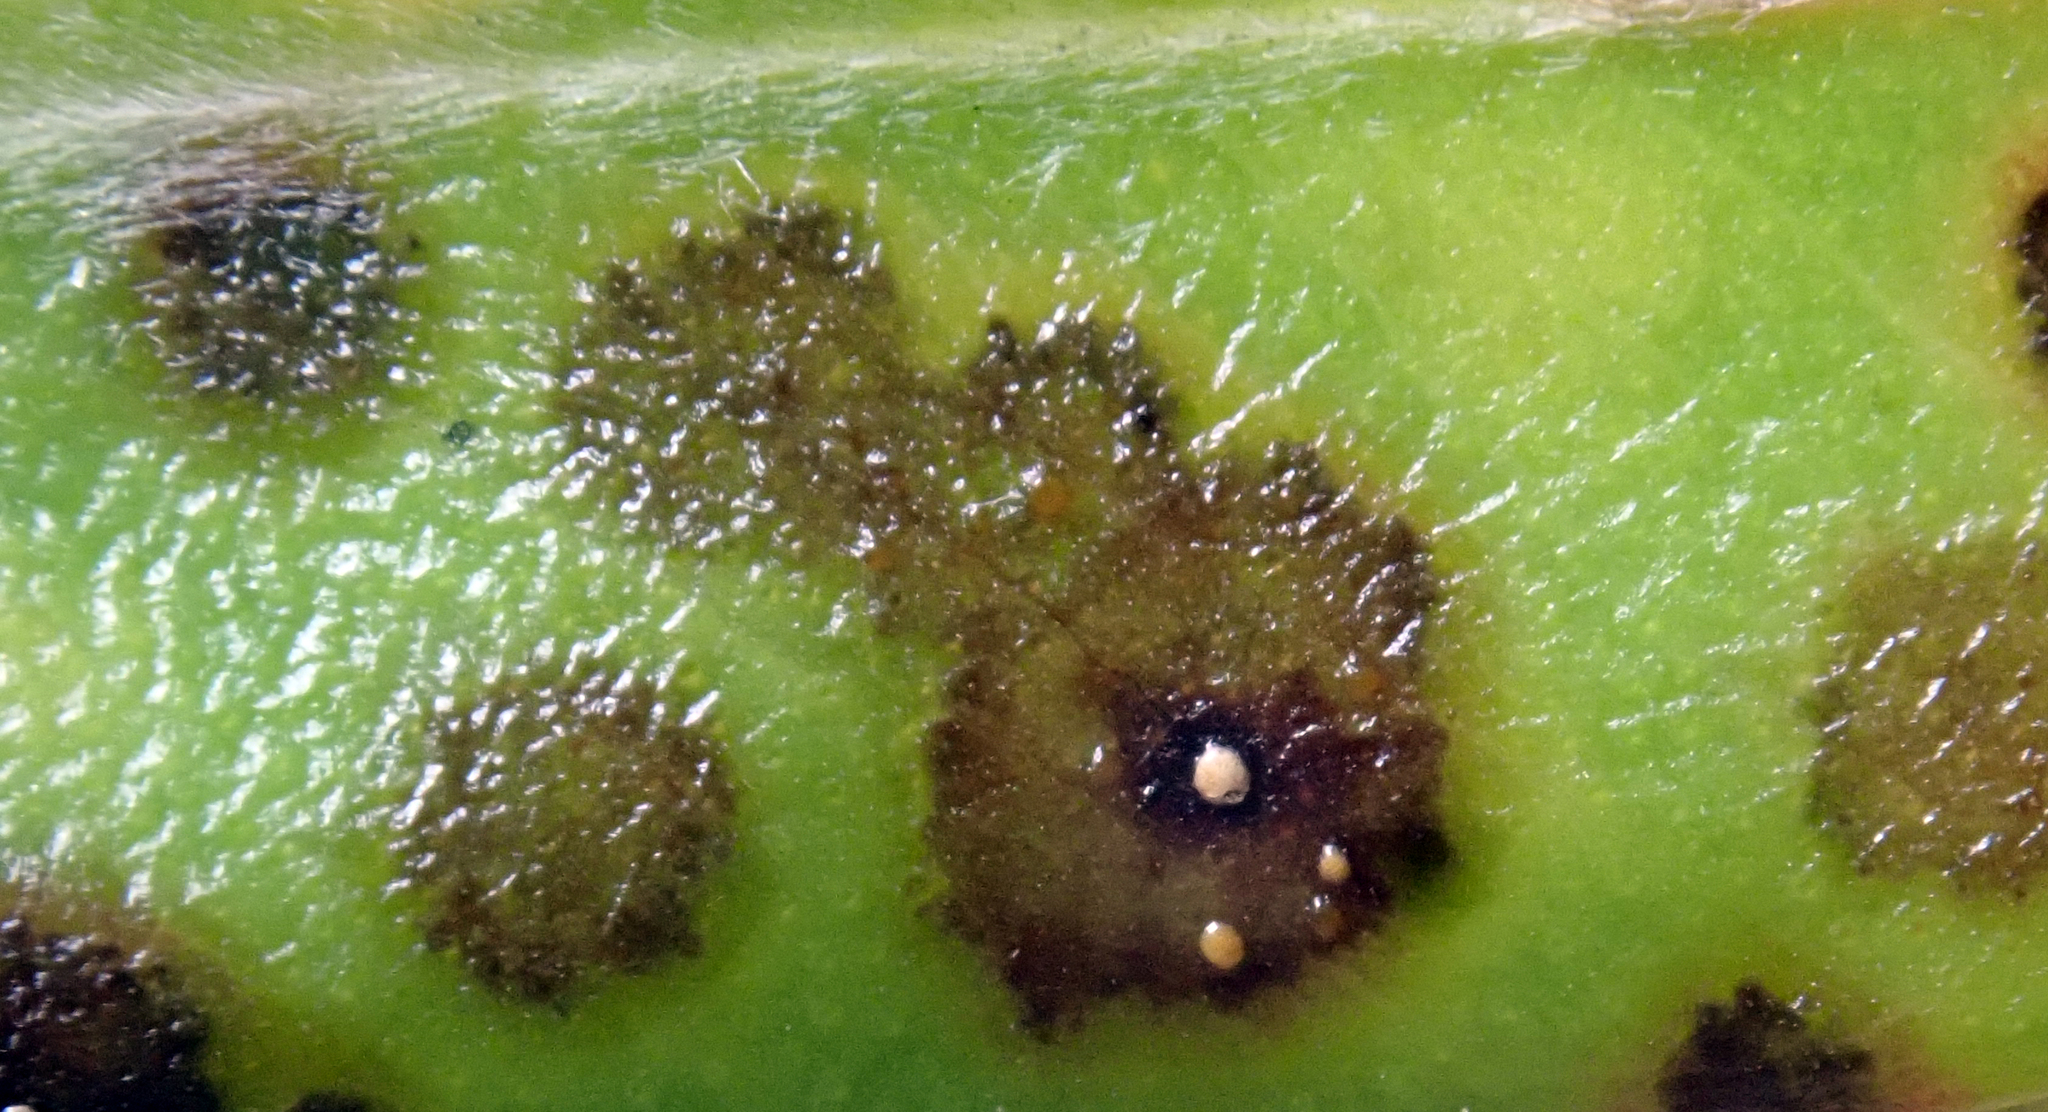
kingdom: Fungi
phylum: Basidiomycota
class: Pucciniomycetes
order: Pucciniales
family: Sphaerophragmiaceae
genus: Austropuccinia
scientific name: Austropuccinia psidii
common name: Myrtle rust
